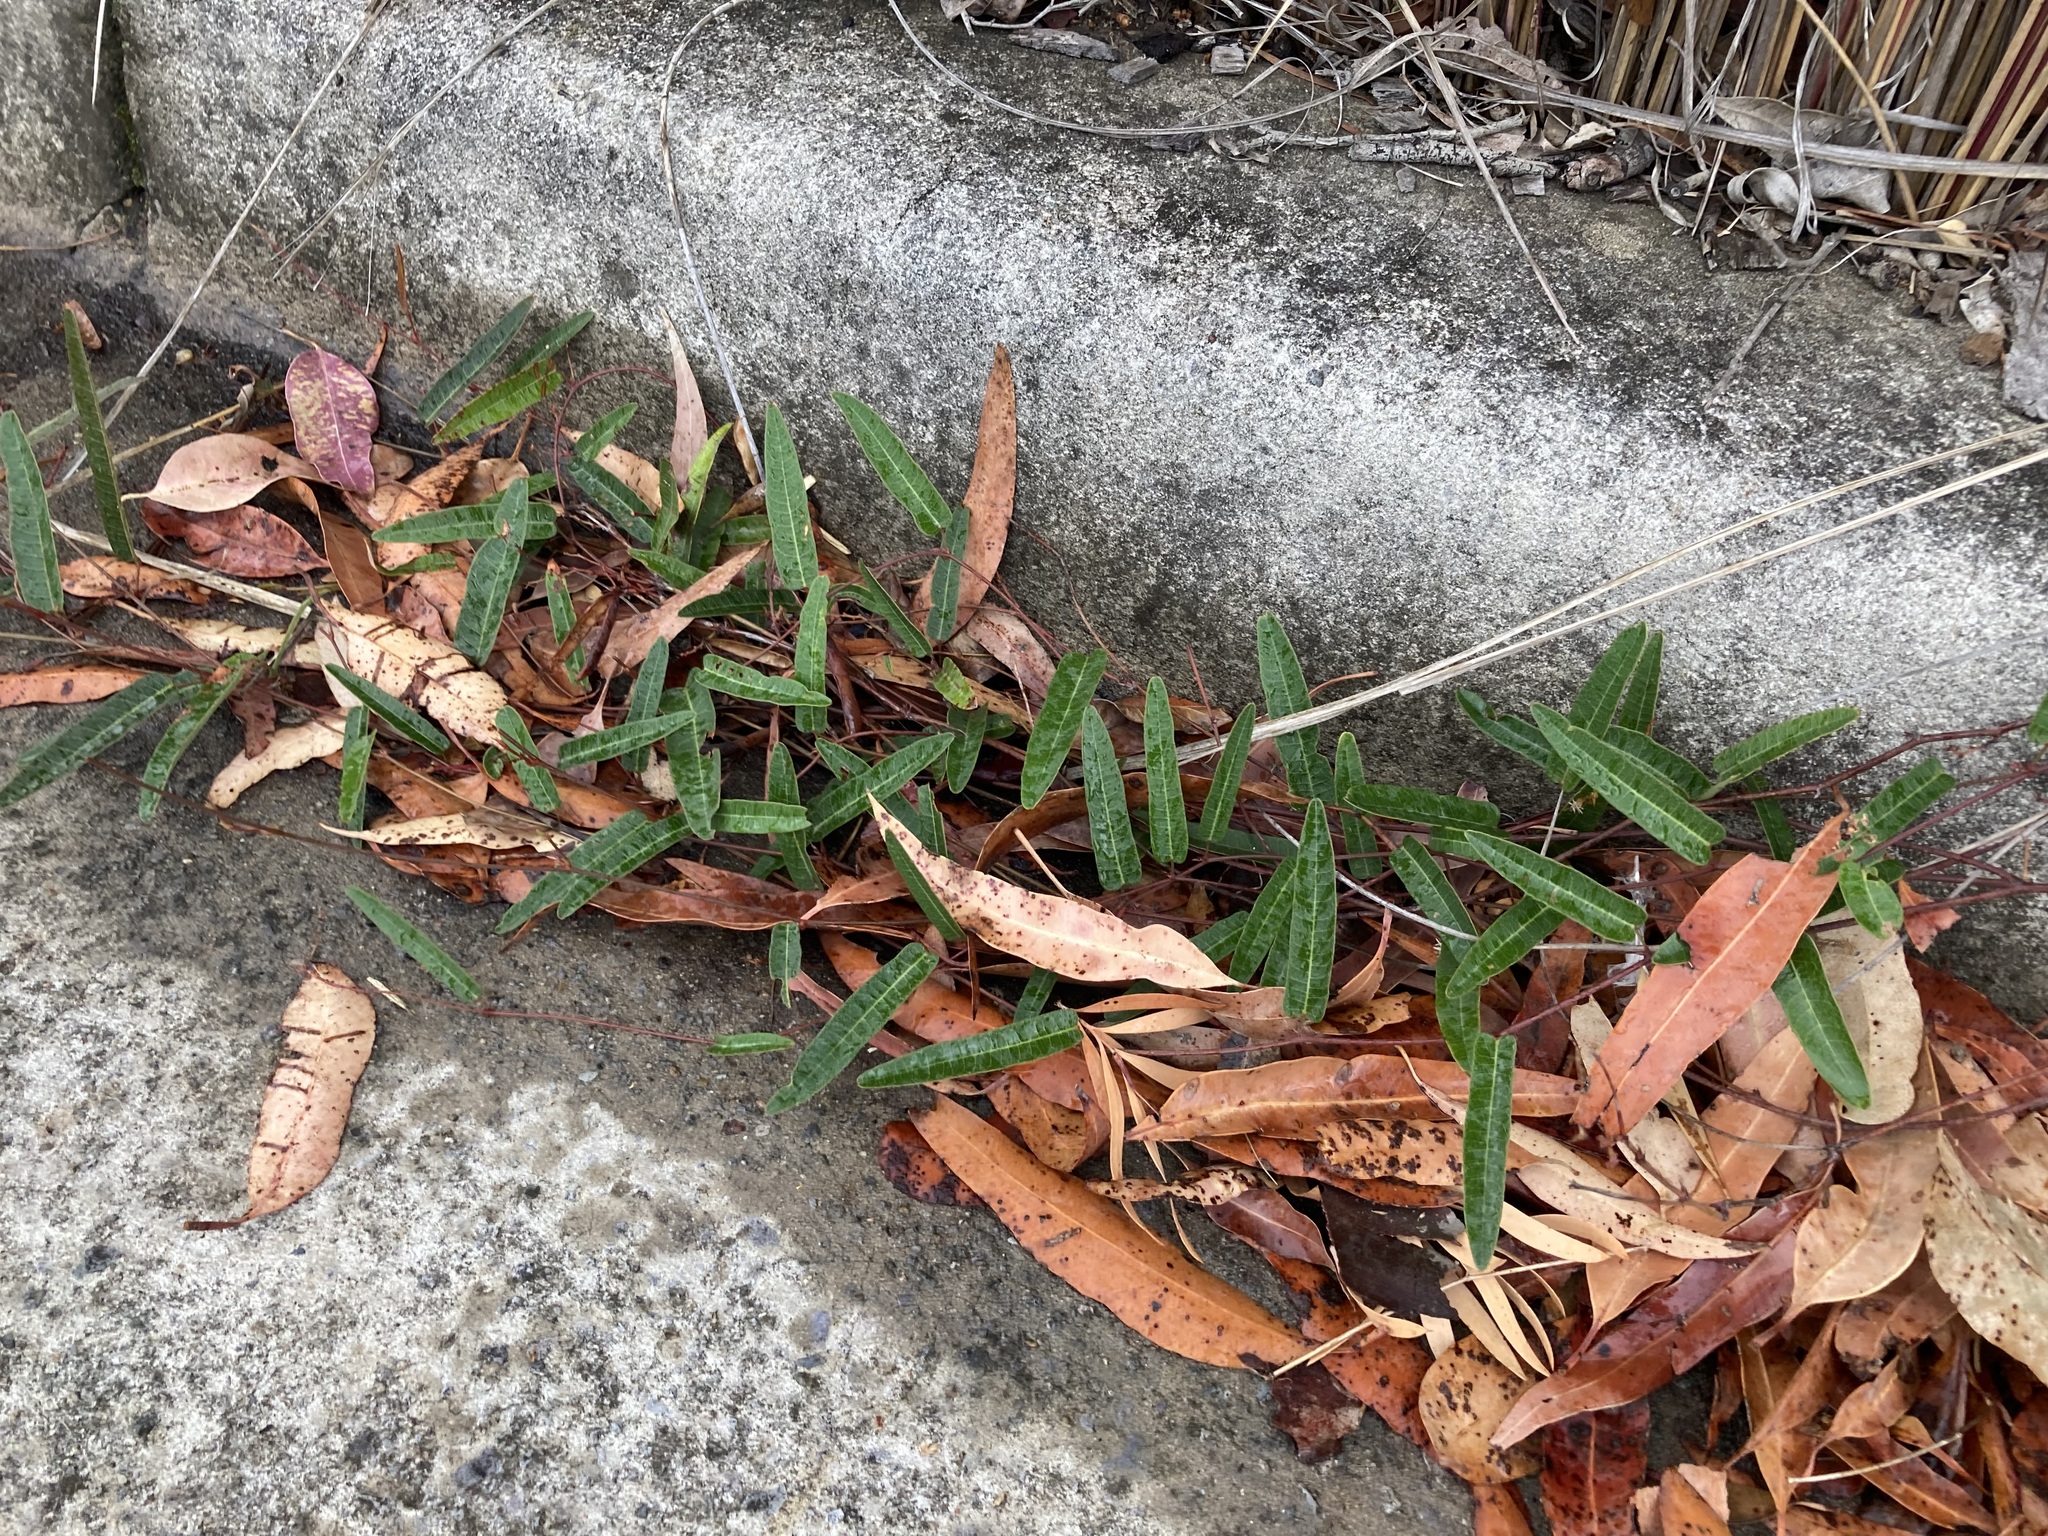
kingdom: Plantae
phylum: Tracheophyta
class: Magnoliopsida
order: Fabales
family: Fabaceae
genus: Hardenbergia
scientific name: Hardenbergia violacea
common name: Coral-pea
